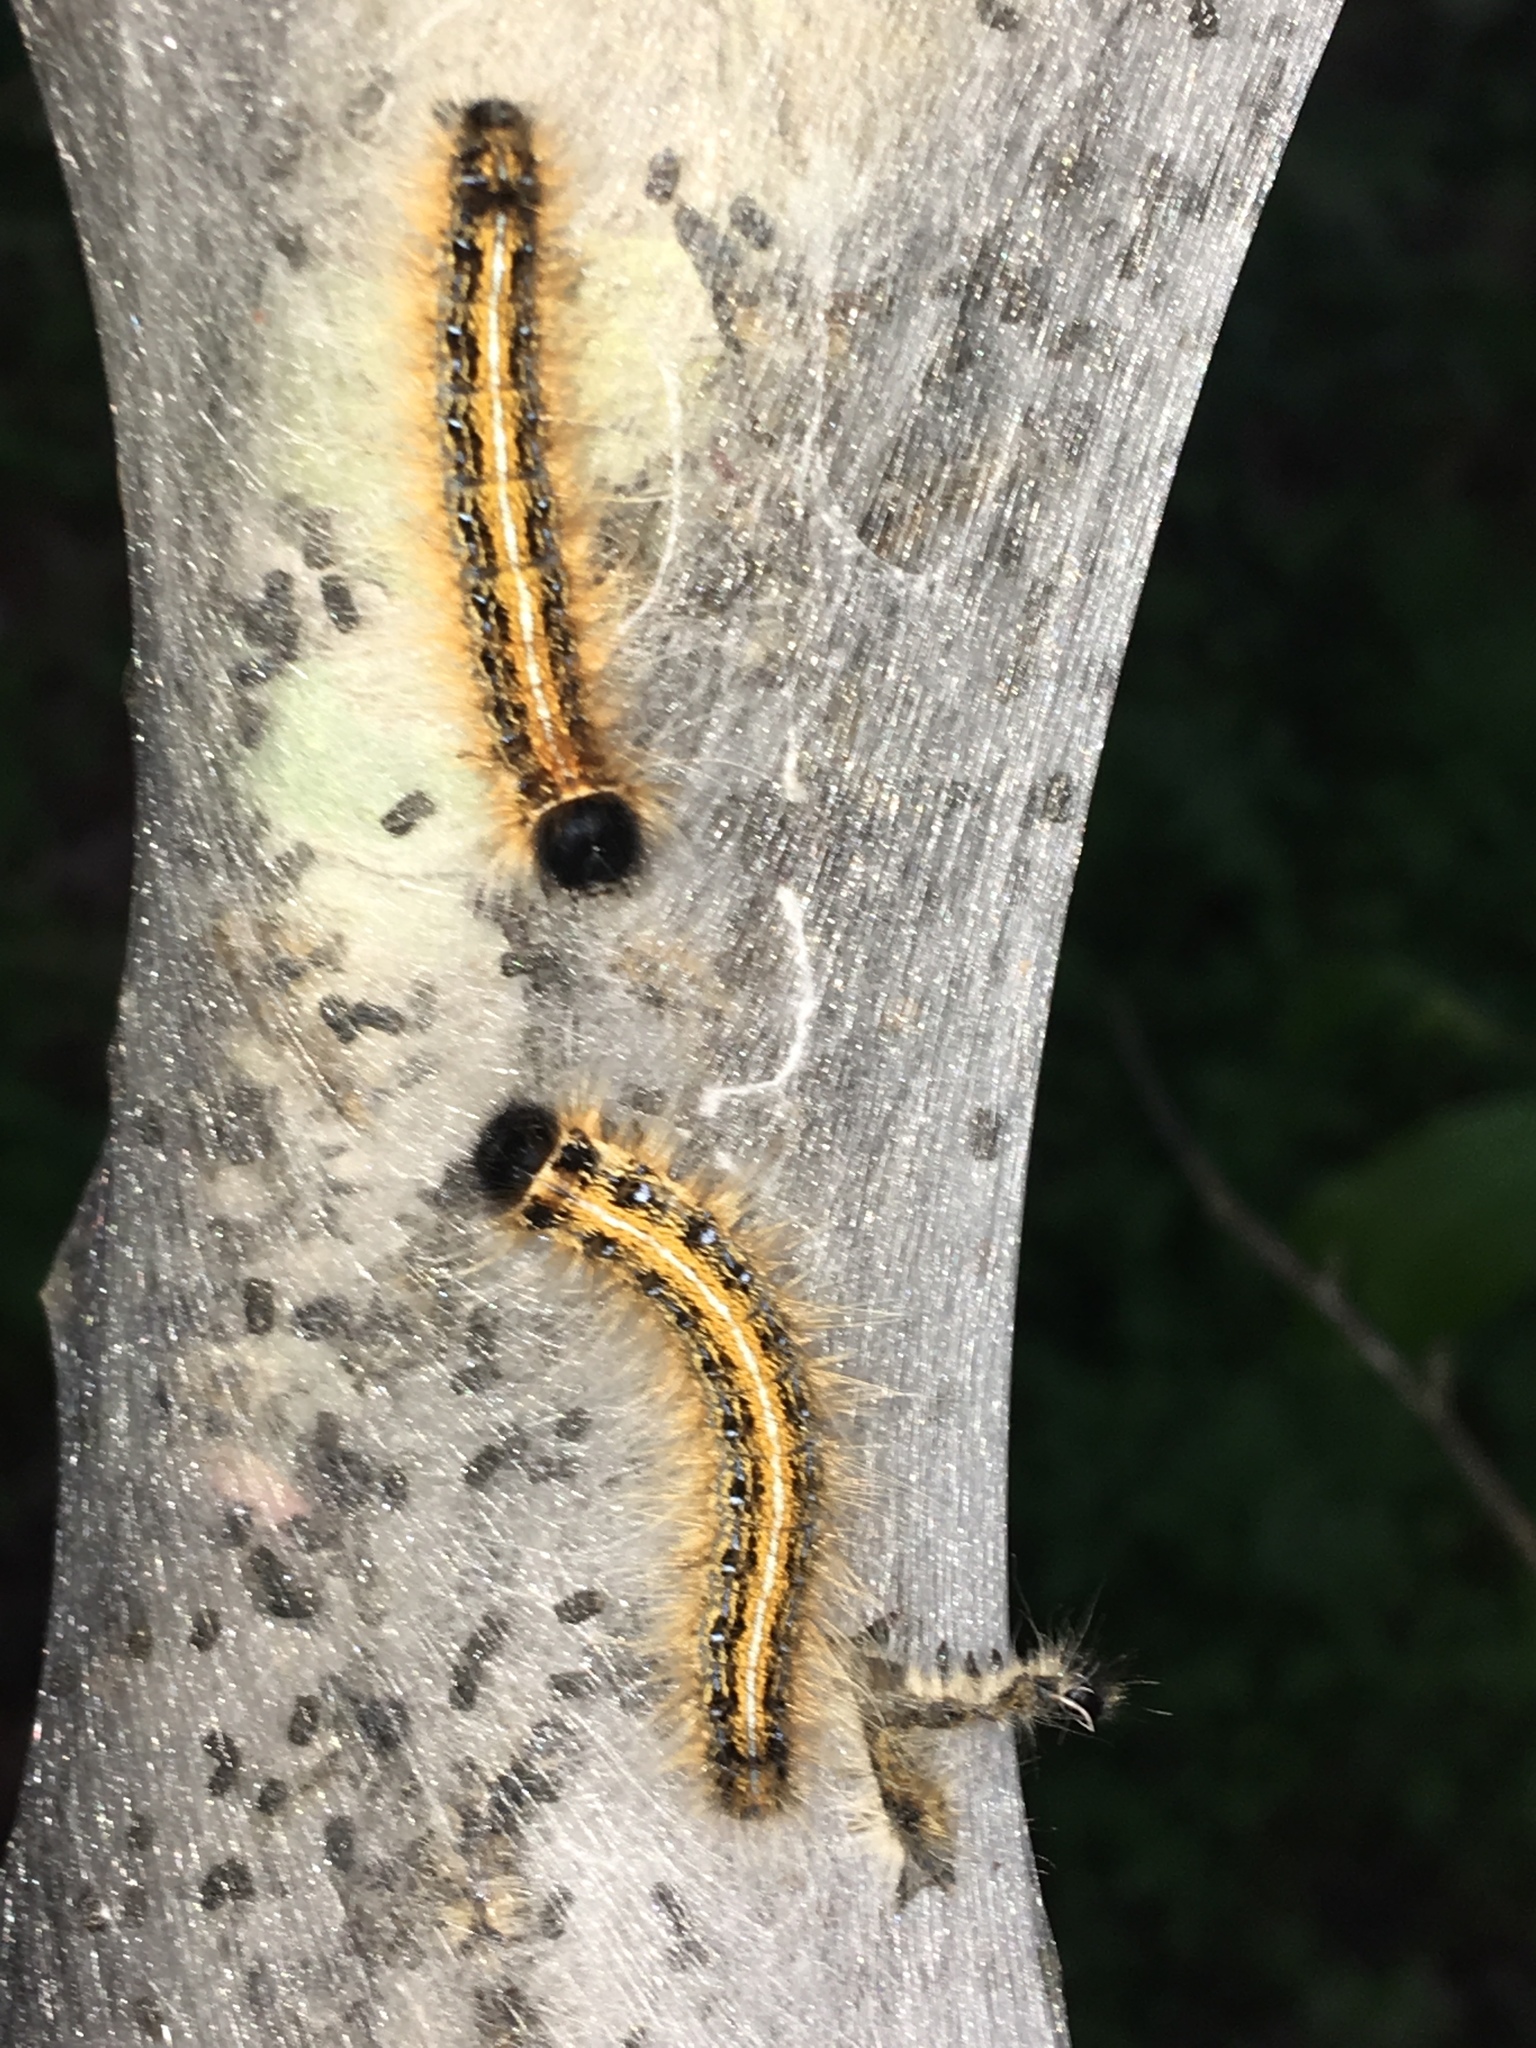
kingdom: Animalia
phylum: Arthropoda
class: Insecta
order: Lepidoptera
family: Lasiocampidae
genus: Malacosoma
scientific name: Malacosoma americana
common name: Eastern tent caterpillar moth
